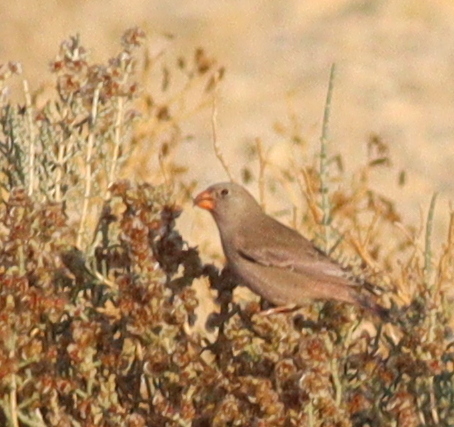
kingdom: Animalia
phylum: Chordata
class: Aves
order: Passeriformes
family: Fringillidae
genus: Bucanetes
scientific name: Bucanetes githagineus
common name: Trumpeter finch
